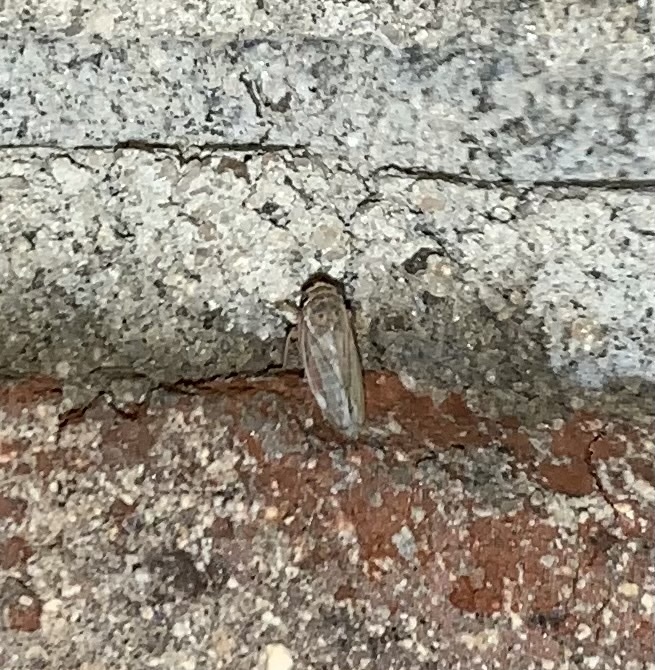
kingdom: Animalia
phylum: Arthropoda
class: Insecta
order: Hemiptera
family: Cicadellidae
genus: Exitianus
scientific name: Exitianus exitiosus
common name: Gray lawn leafhopper
